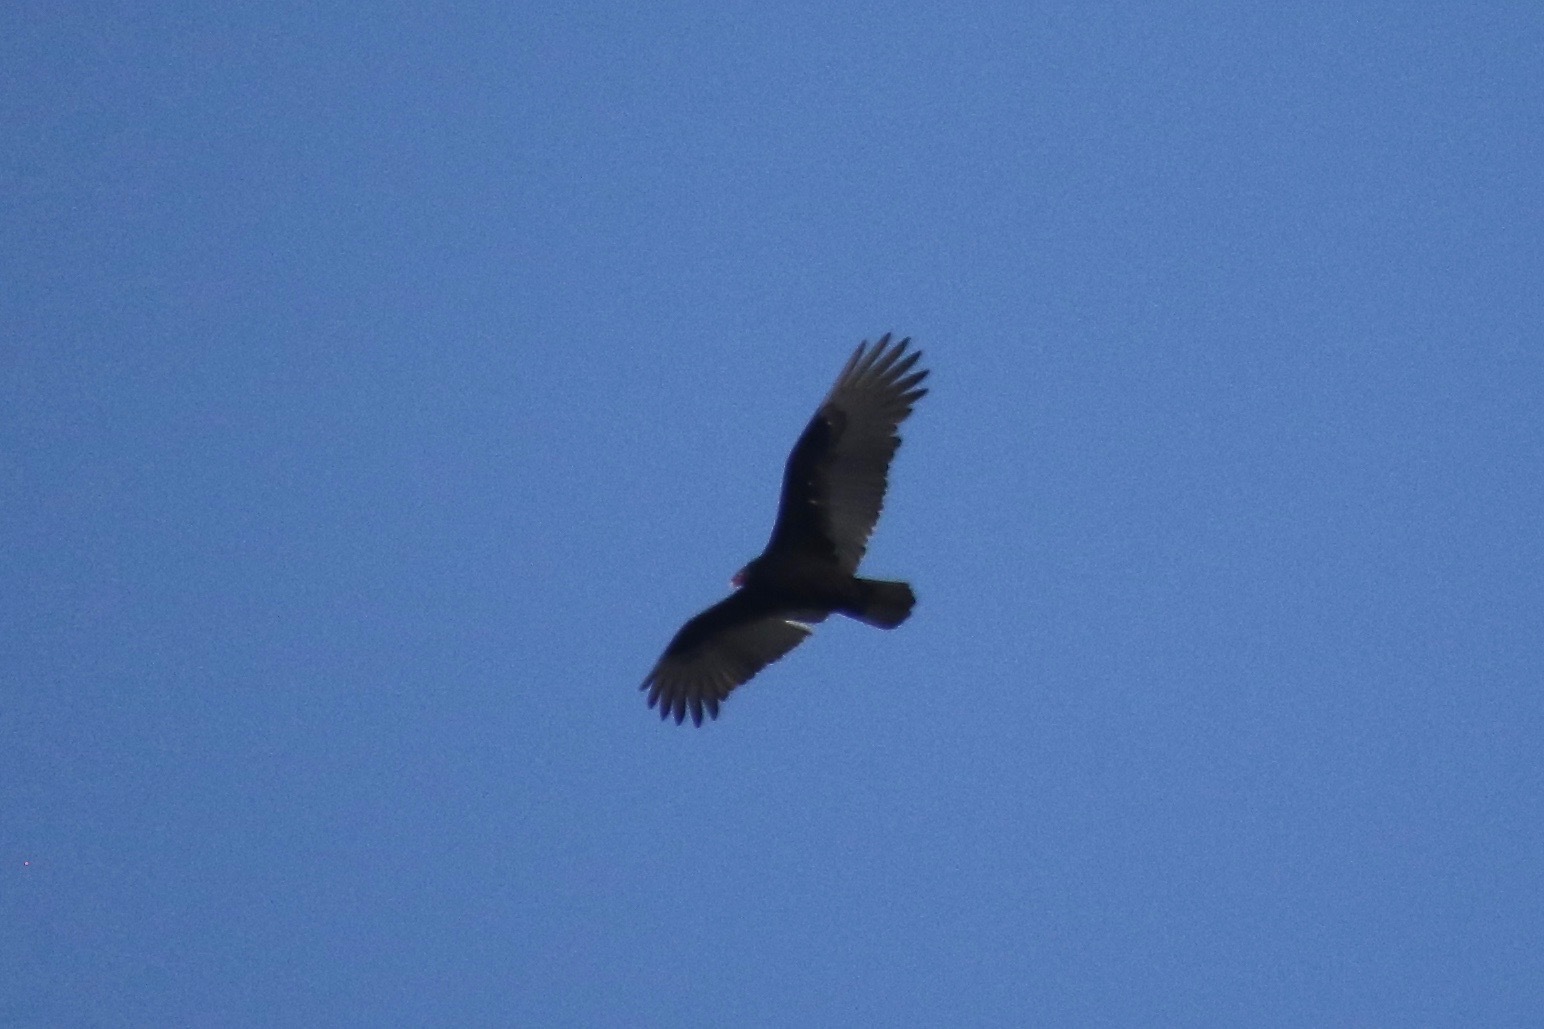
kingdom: Animalia
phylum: Chordata
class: Aves
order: Accipitriformes
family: Cathartidae
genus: Cathartes
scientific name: Cathartes aura
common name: Turkey vulture
